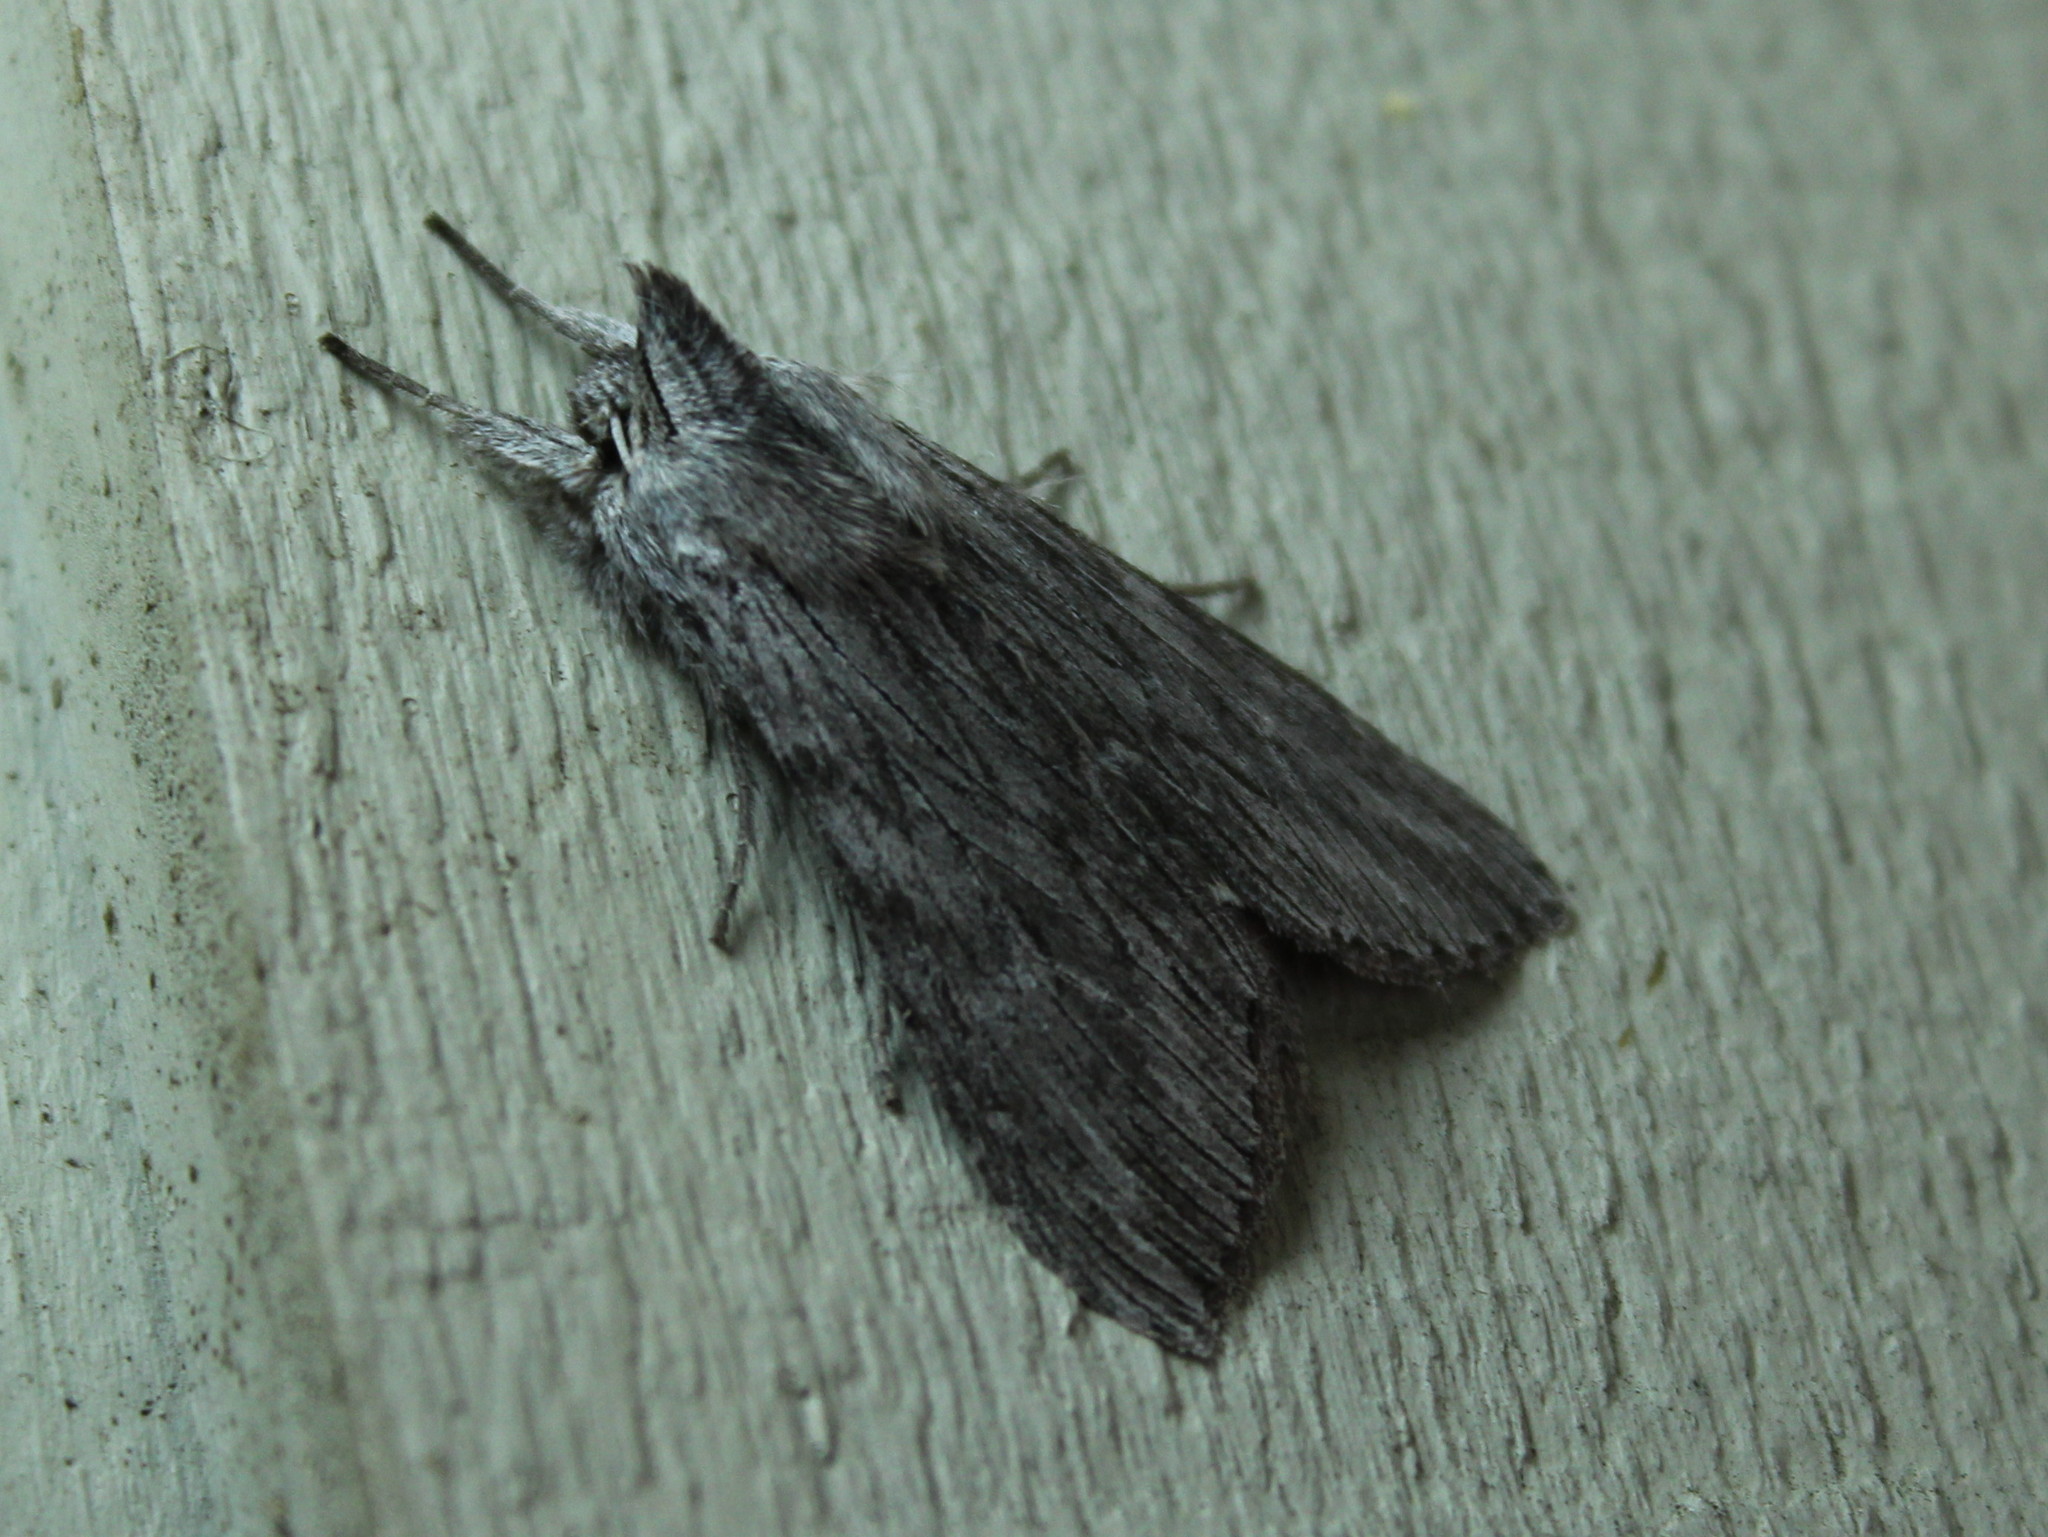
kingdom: Animalia
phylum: Arthropoda
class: Insecta
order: Lepidoptera
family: Noctuidae
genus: Cucullia
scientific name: Cucullia intermedia
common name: Goldenrod cutworm
